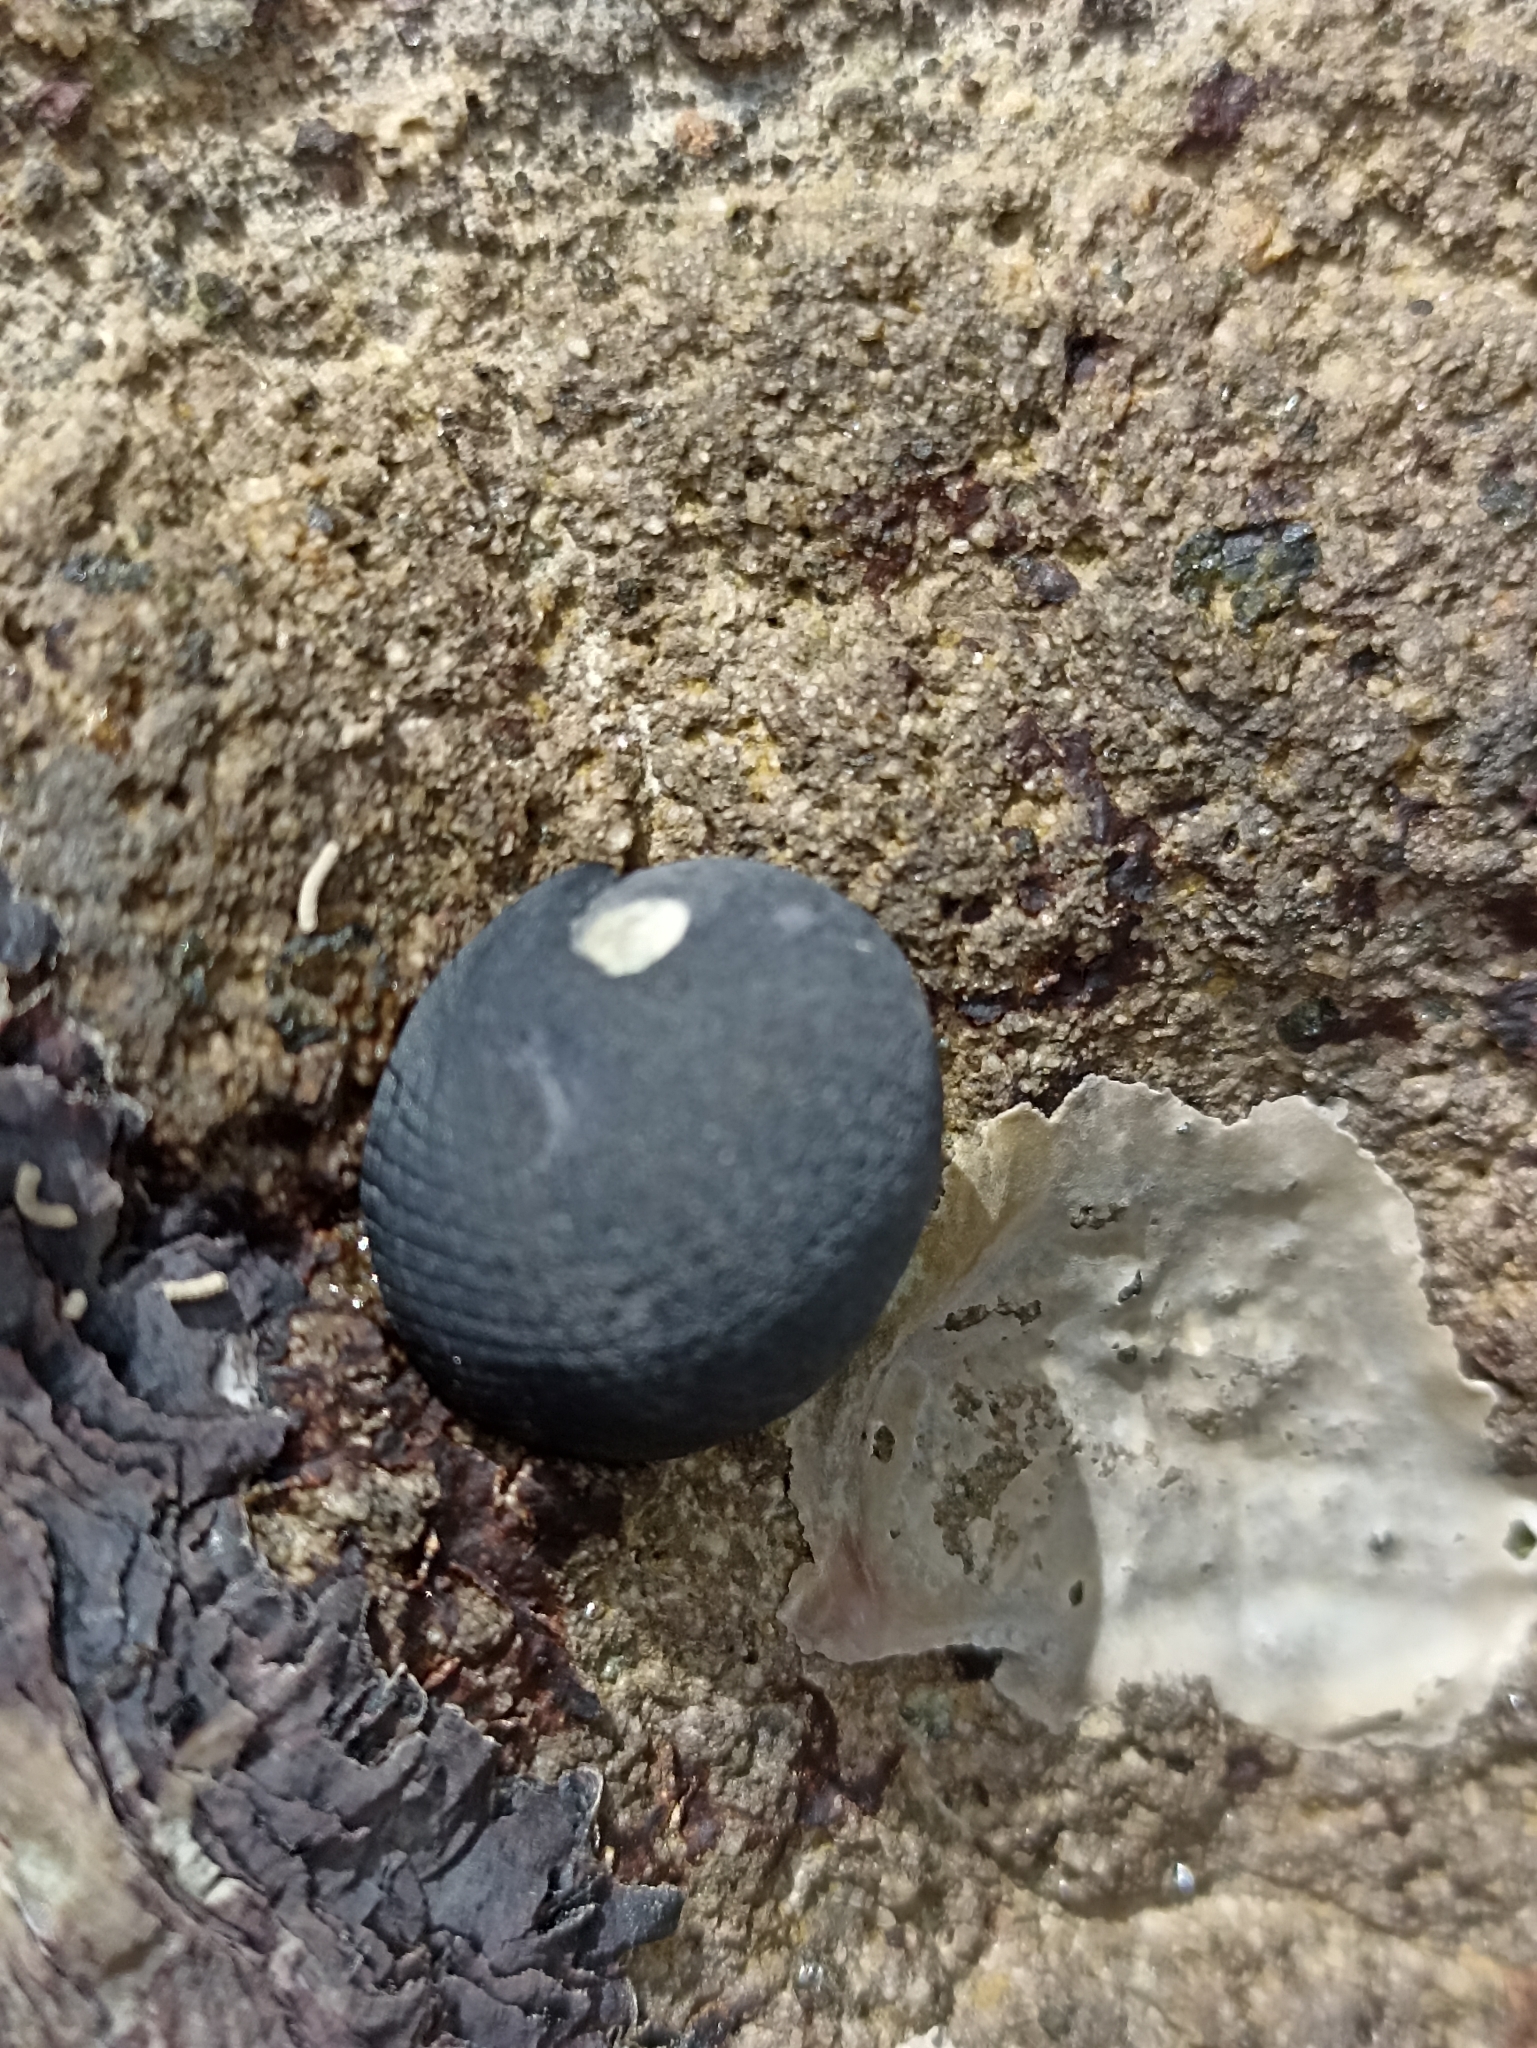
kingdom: Animalia
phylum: Mollusca
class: Gastropoda
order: Cycloneritida
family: Neritidae
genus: Nerita
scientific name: Nerita melanotragus
